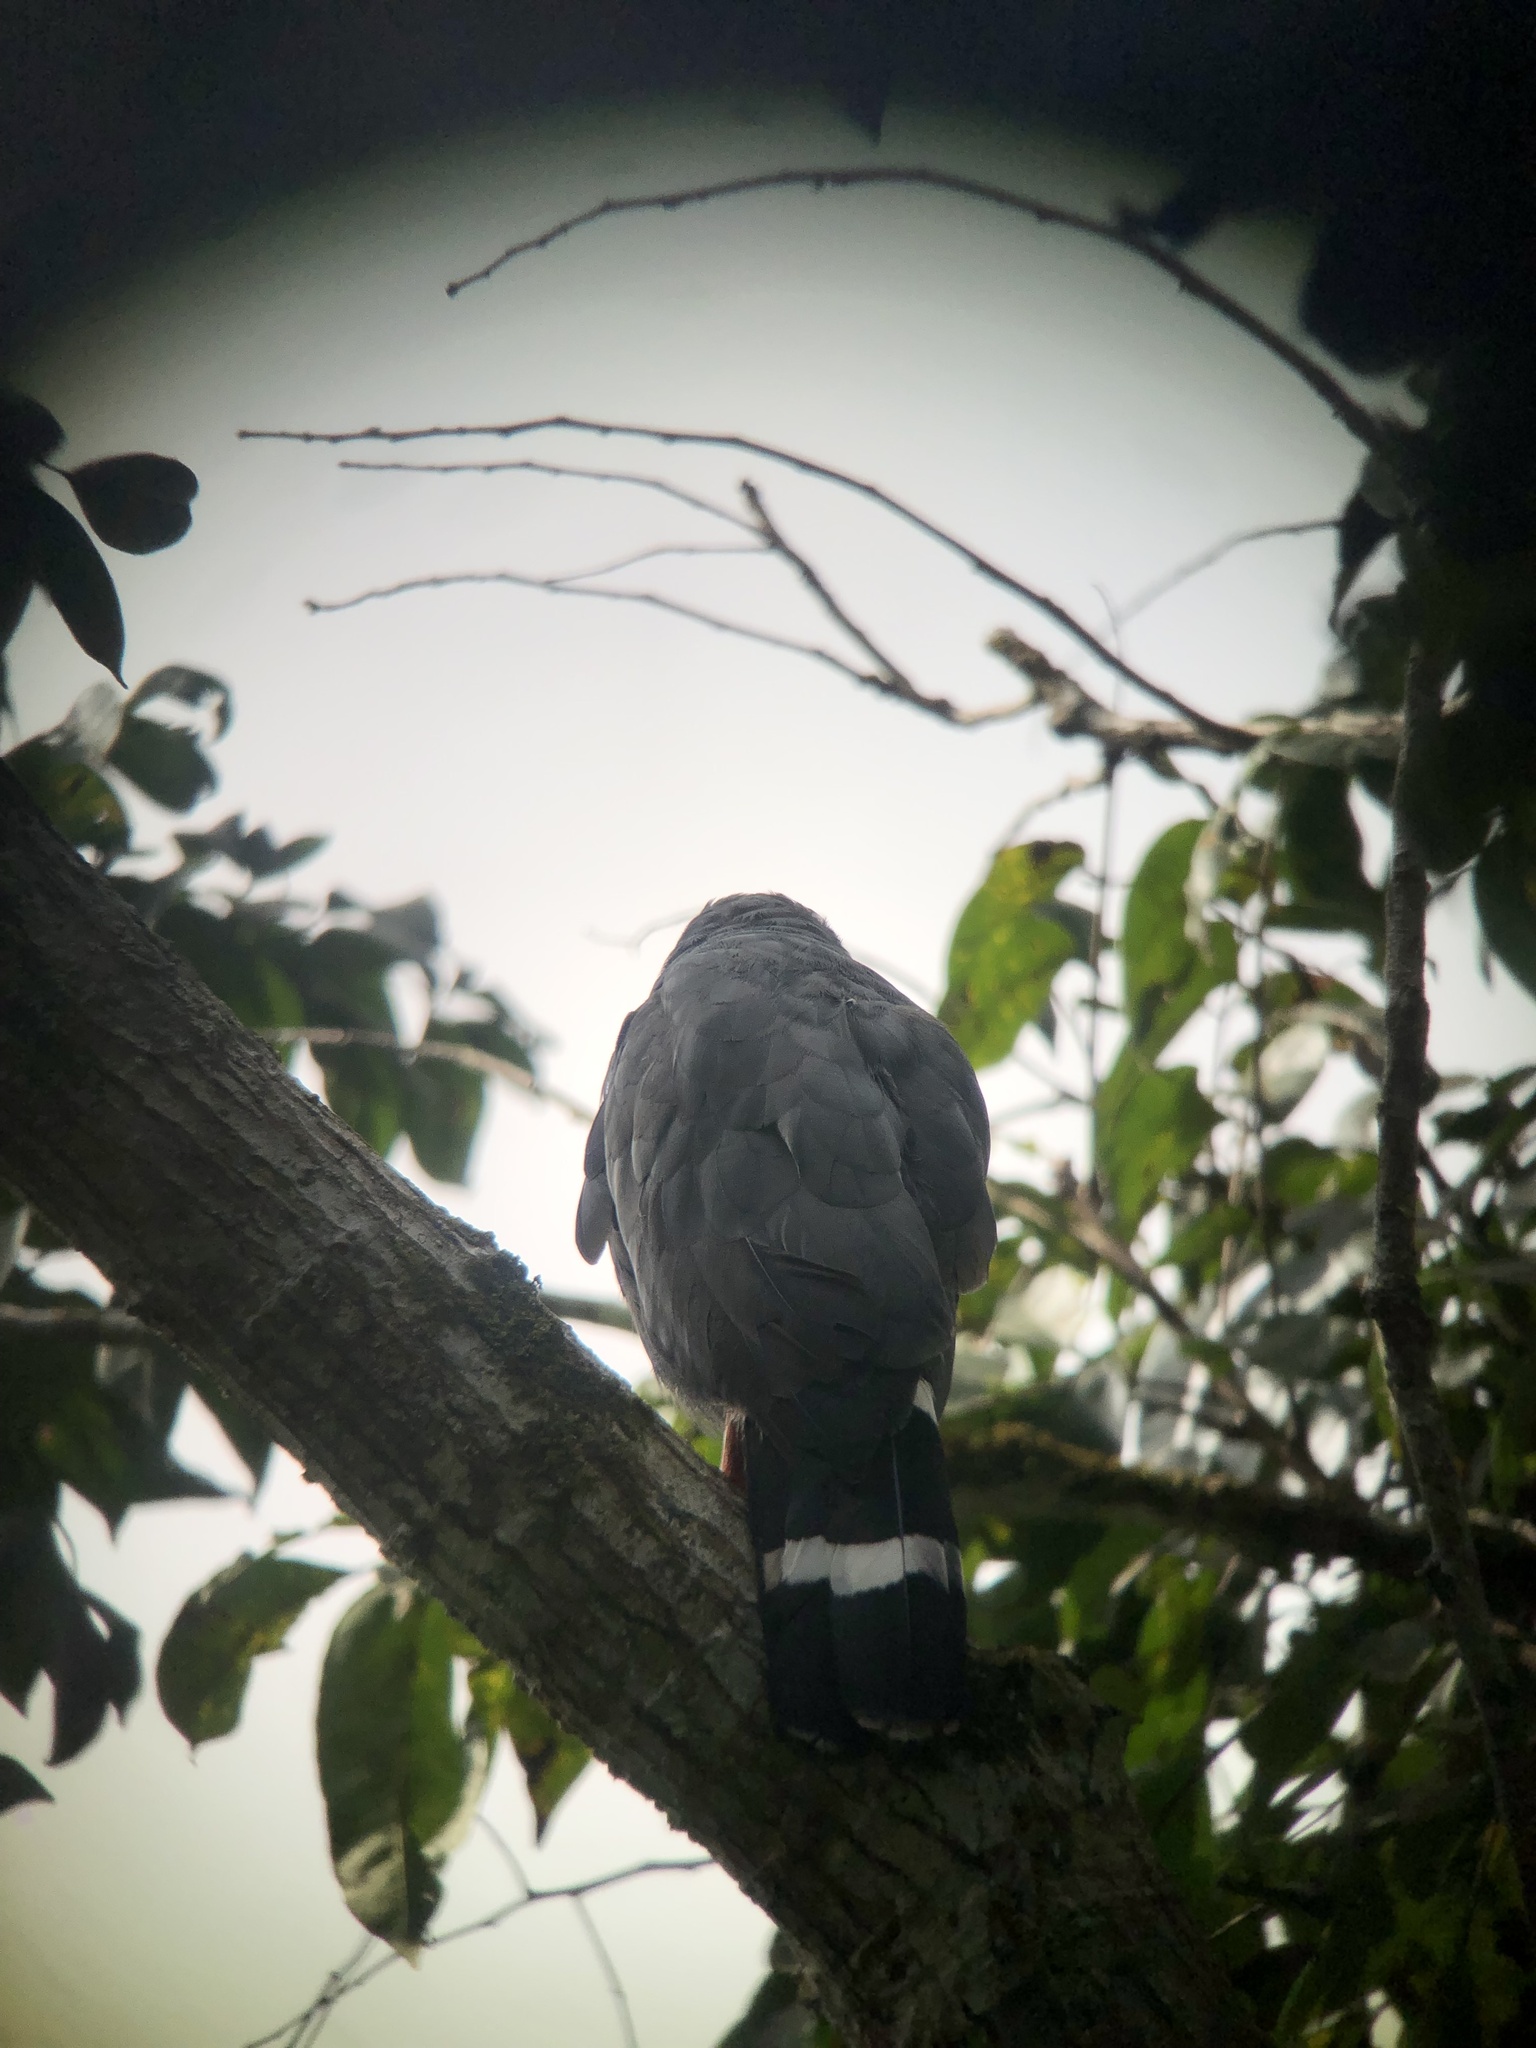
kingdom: Animalia
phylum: Chordata
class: Aves
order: Accipitriformes
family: Accipitridae
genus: Geranospiza
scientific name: Geranospiza caerulescens
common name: Crane hawk
